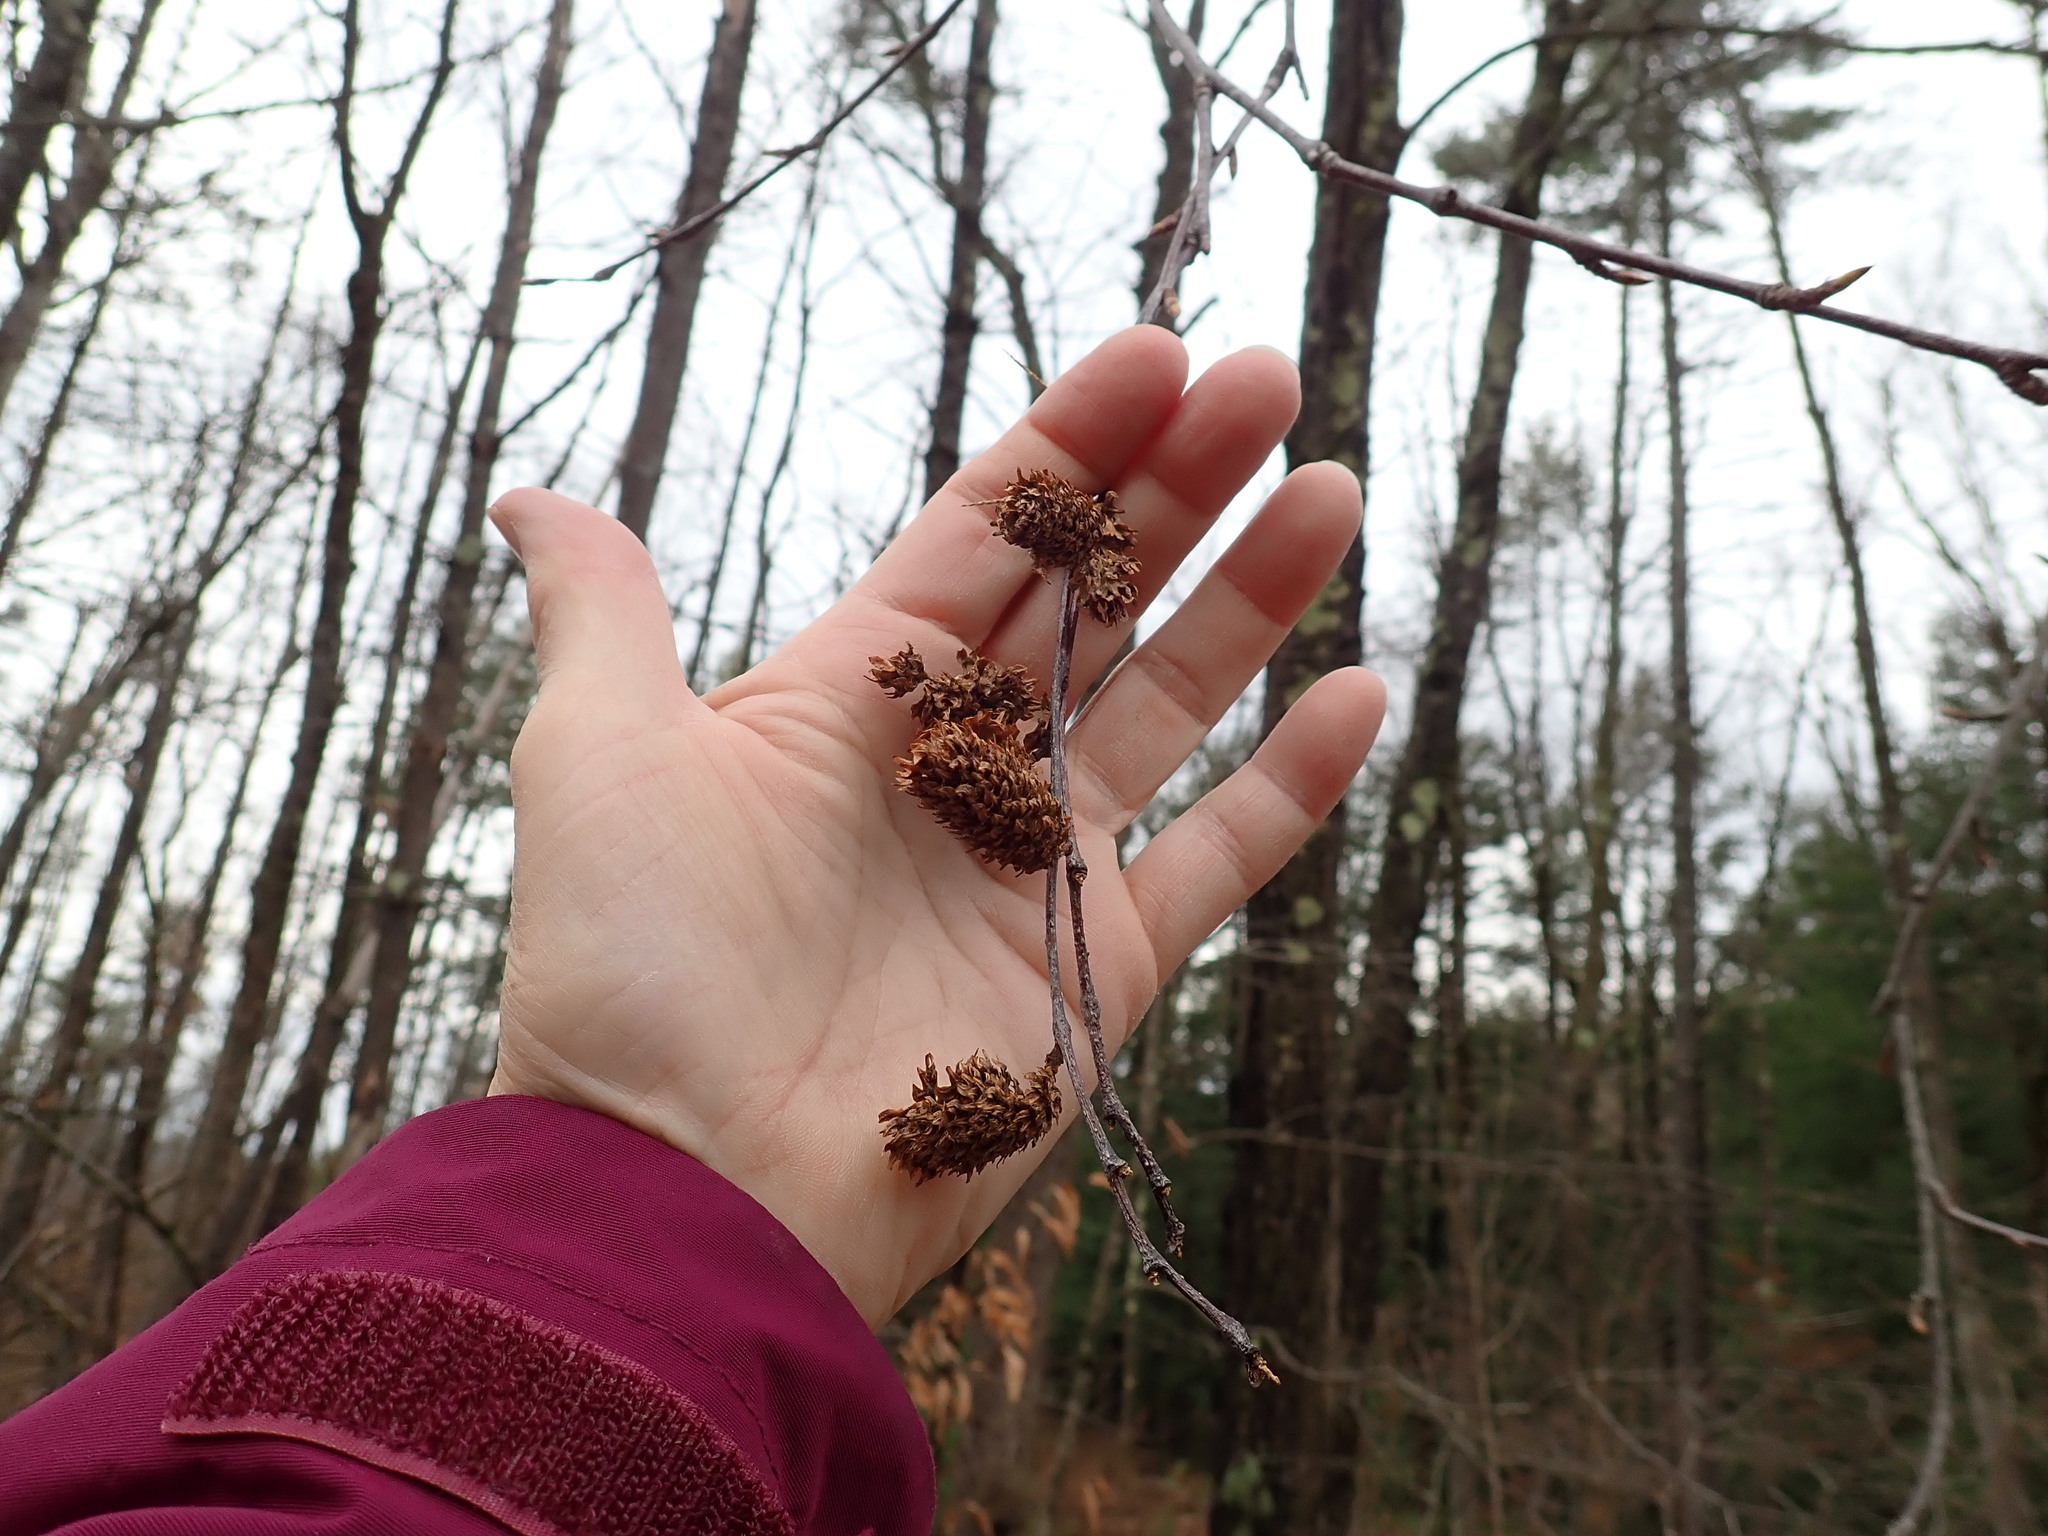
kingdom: Plantae
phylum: Tracheophyta
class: Magnoliopsida
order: Fagales
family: Betulaceae
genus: Betula
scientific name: Betula lenta
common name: Black birch
